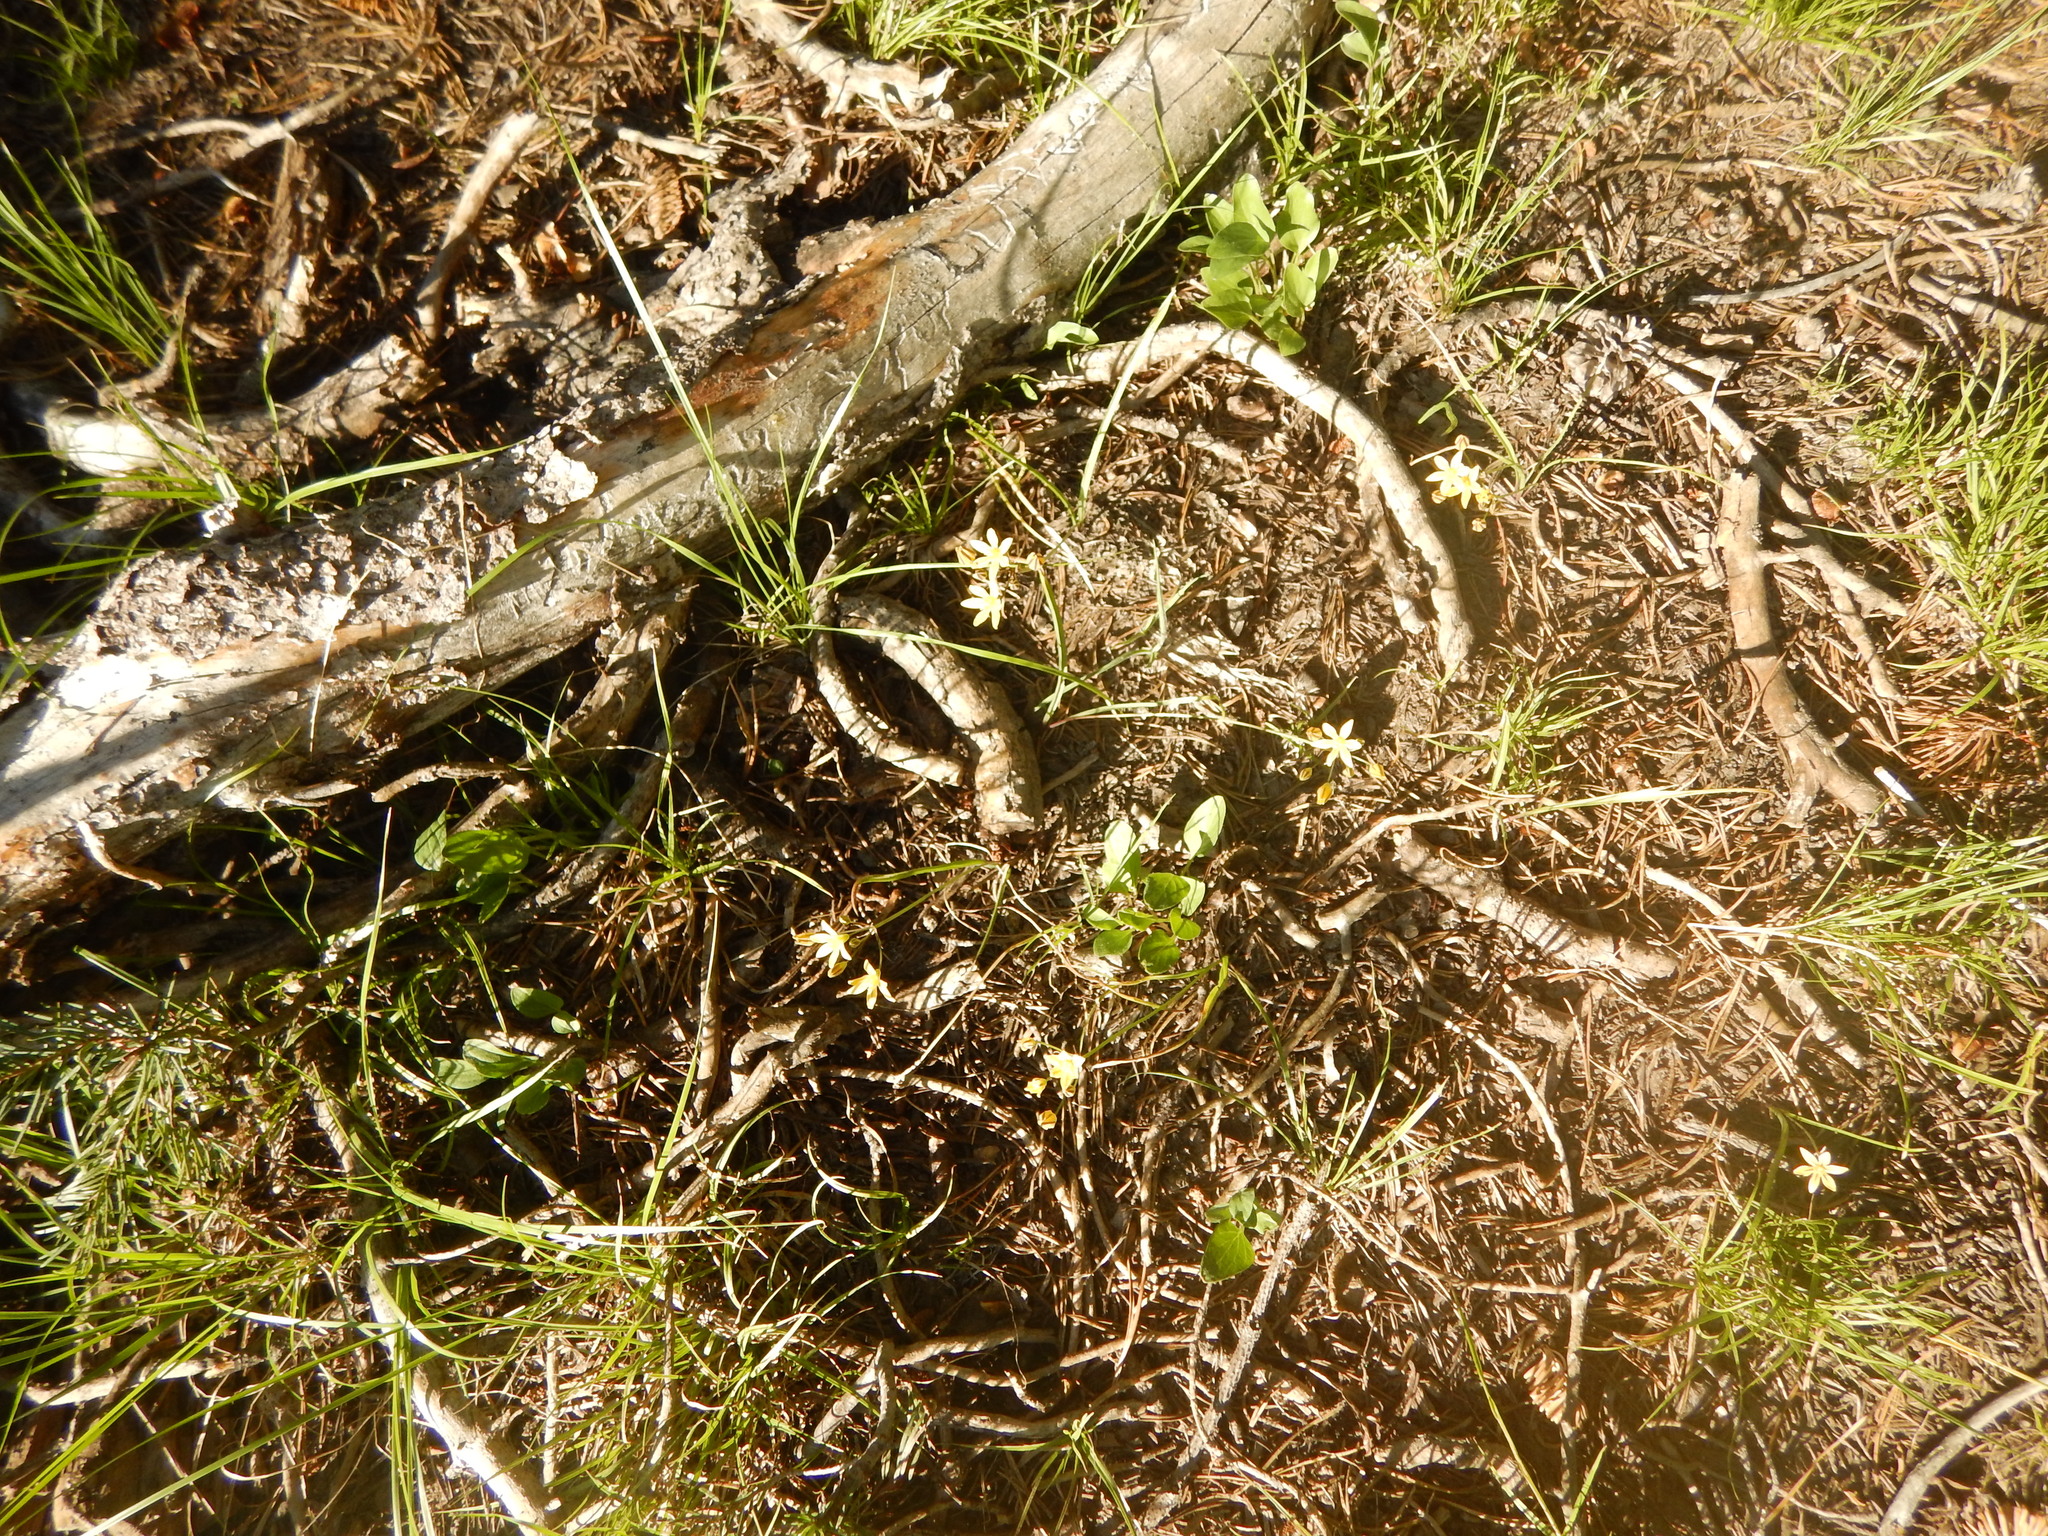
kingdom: Plantae
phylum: Tracheophyta
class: Liliopsida
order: Asparagales
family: Asparagaceae
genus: Triteleia
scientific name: Triteleia ixioides
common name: Yellow-brodiaea
